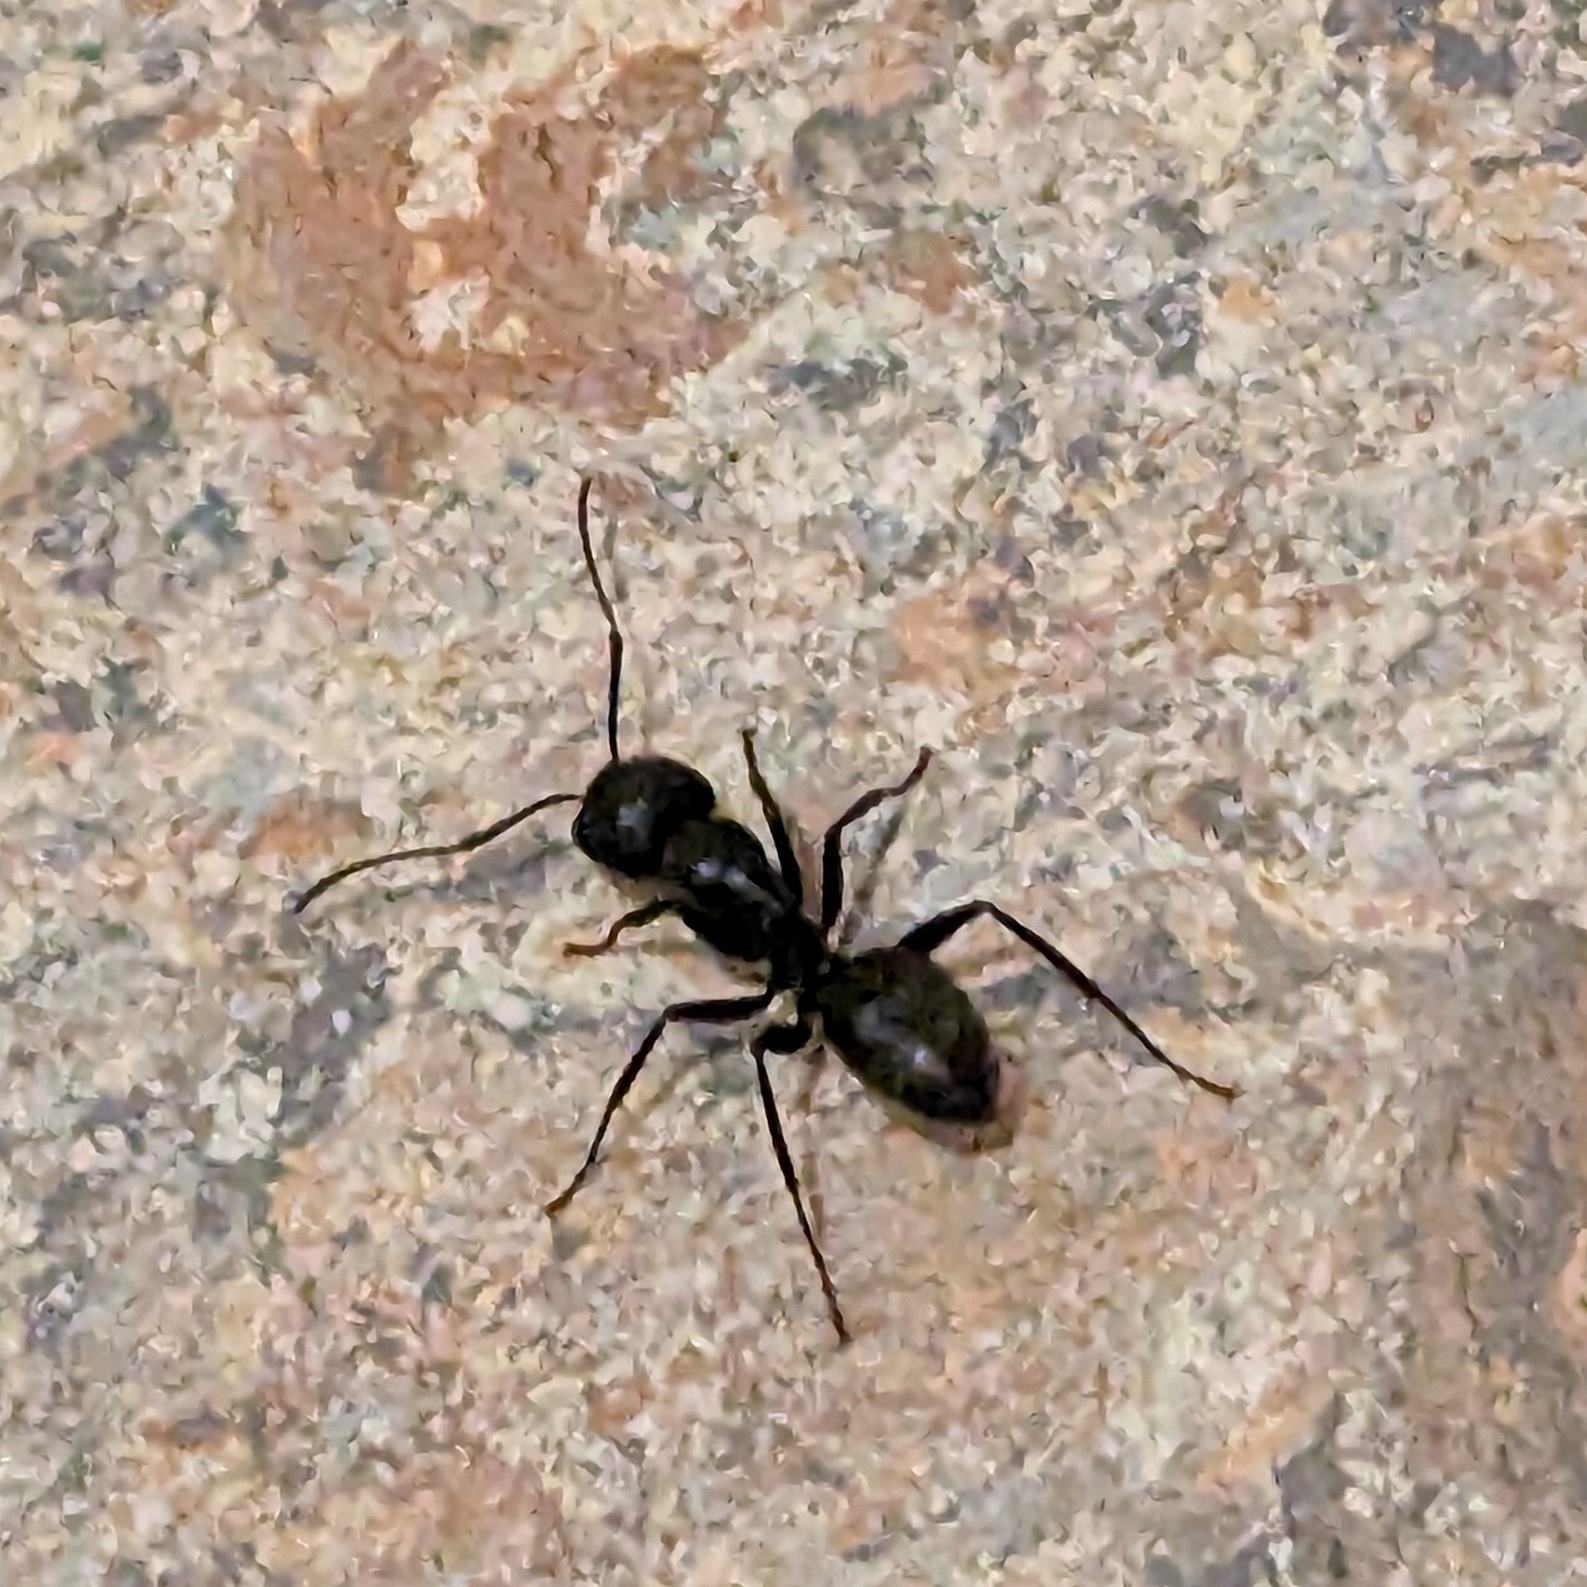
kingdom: Animalia
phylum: Arthropoda
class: Insecta
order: Hymenoptera
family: Formicidae
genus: Camponotus
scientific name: Camponotus pennsylvanicus
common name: Black carpenter ant
